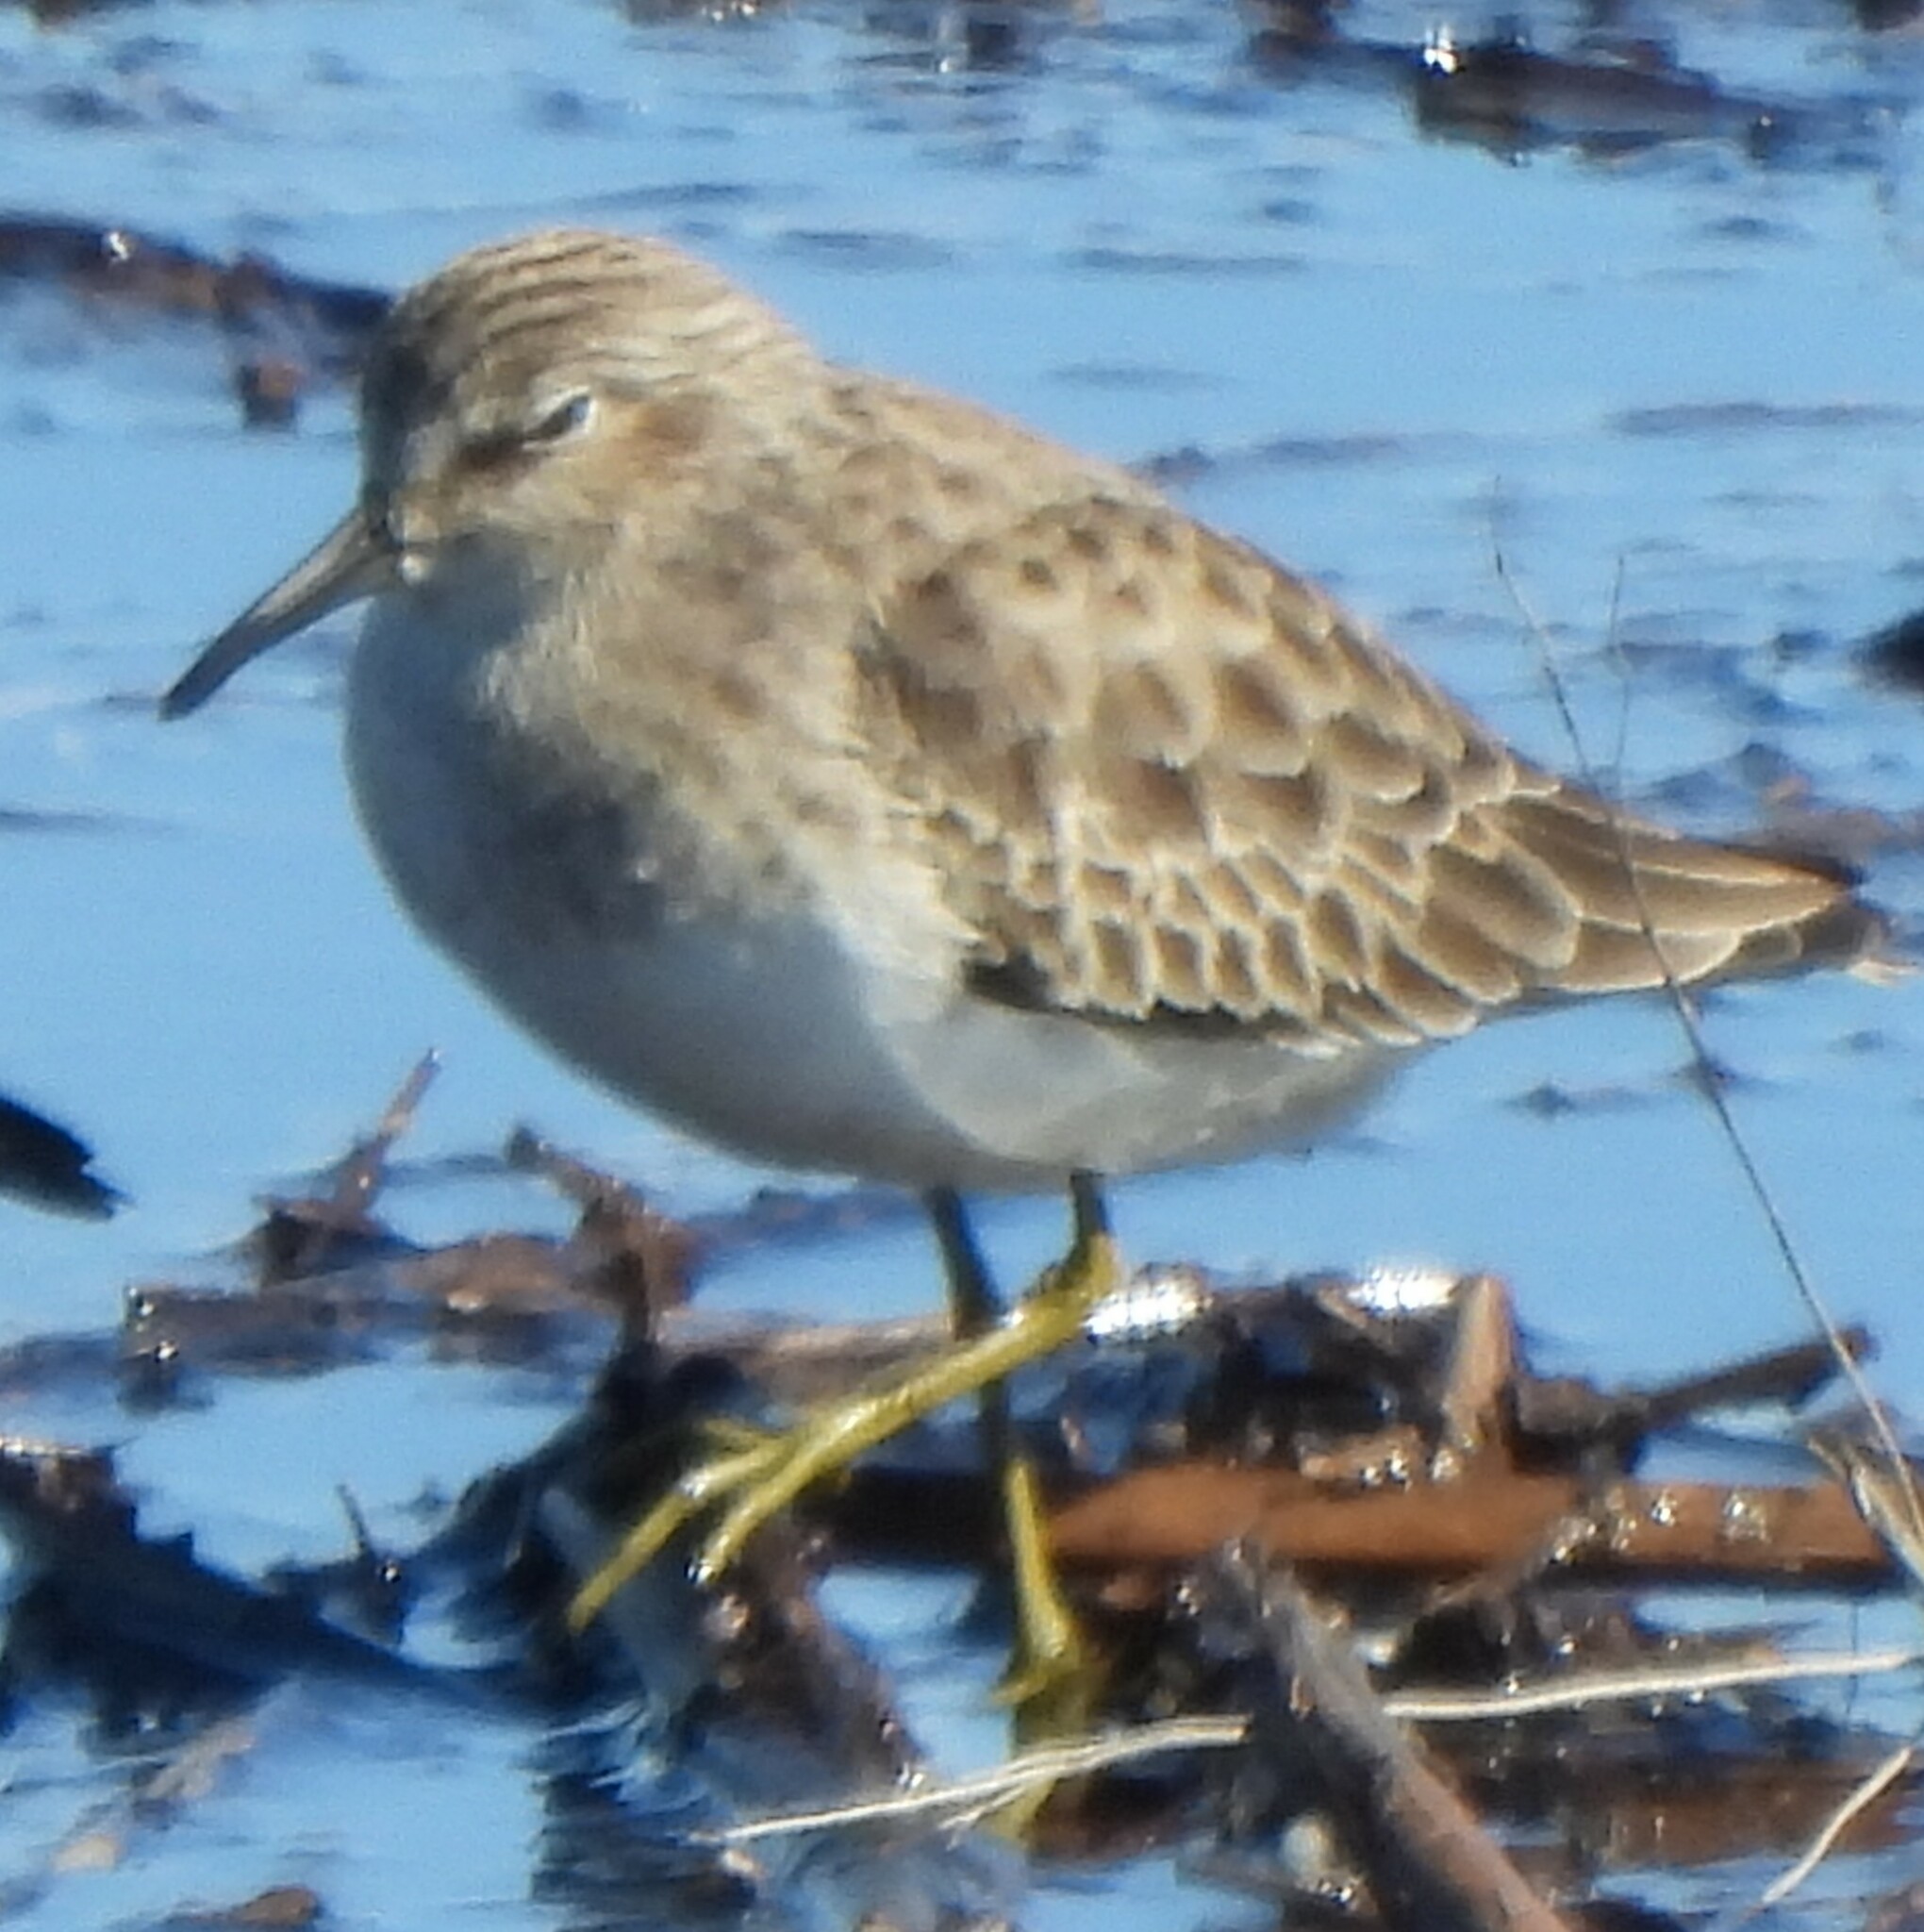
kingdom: Animalia
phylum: Chordata
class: Aves
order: Charadriiformes
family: Scolopacidae
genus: Calidris
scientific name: Calidris minutilla
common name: Least sandpiper
